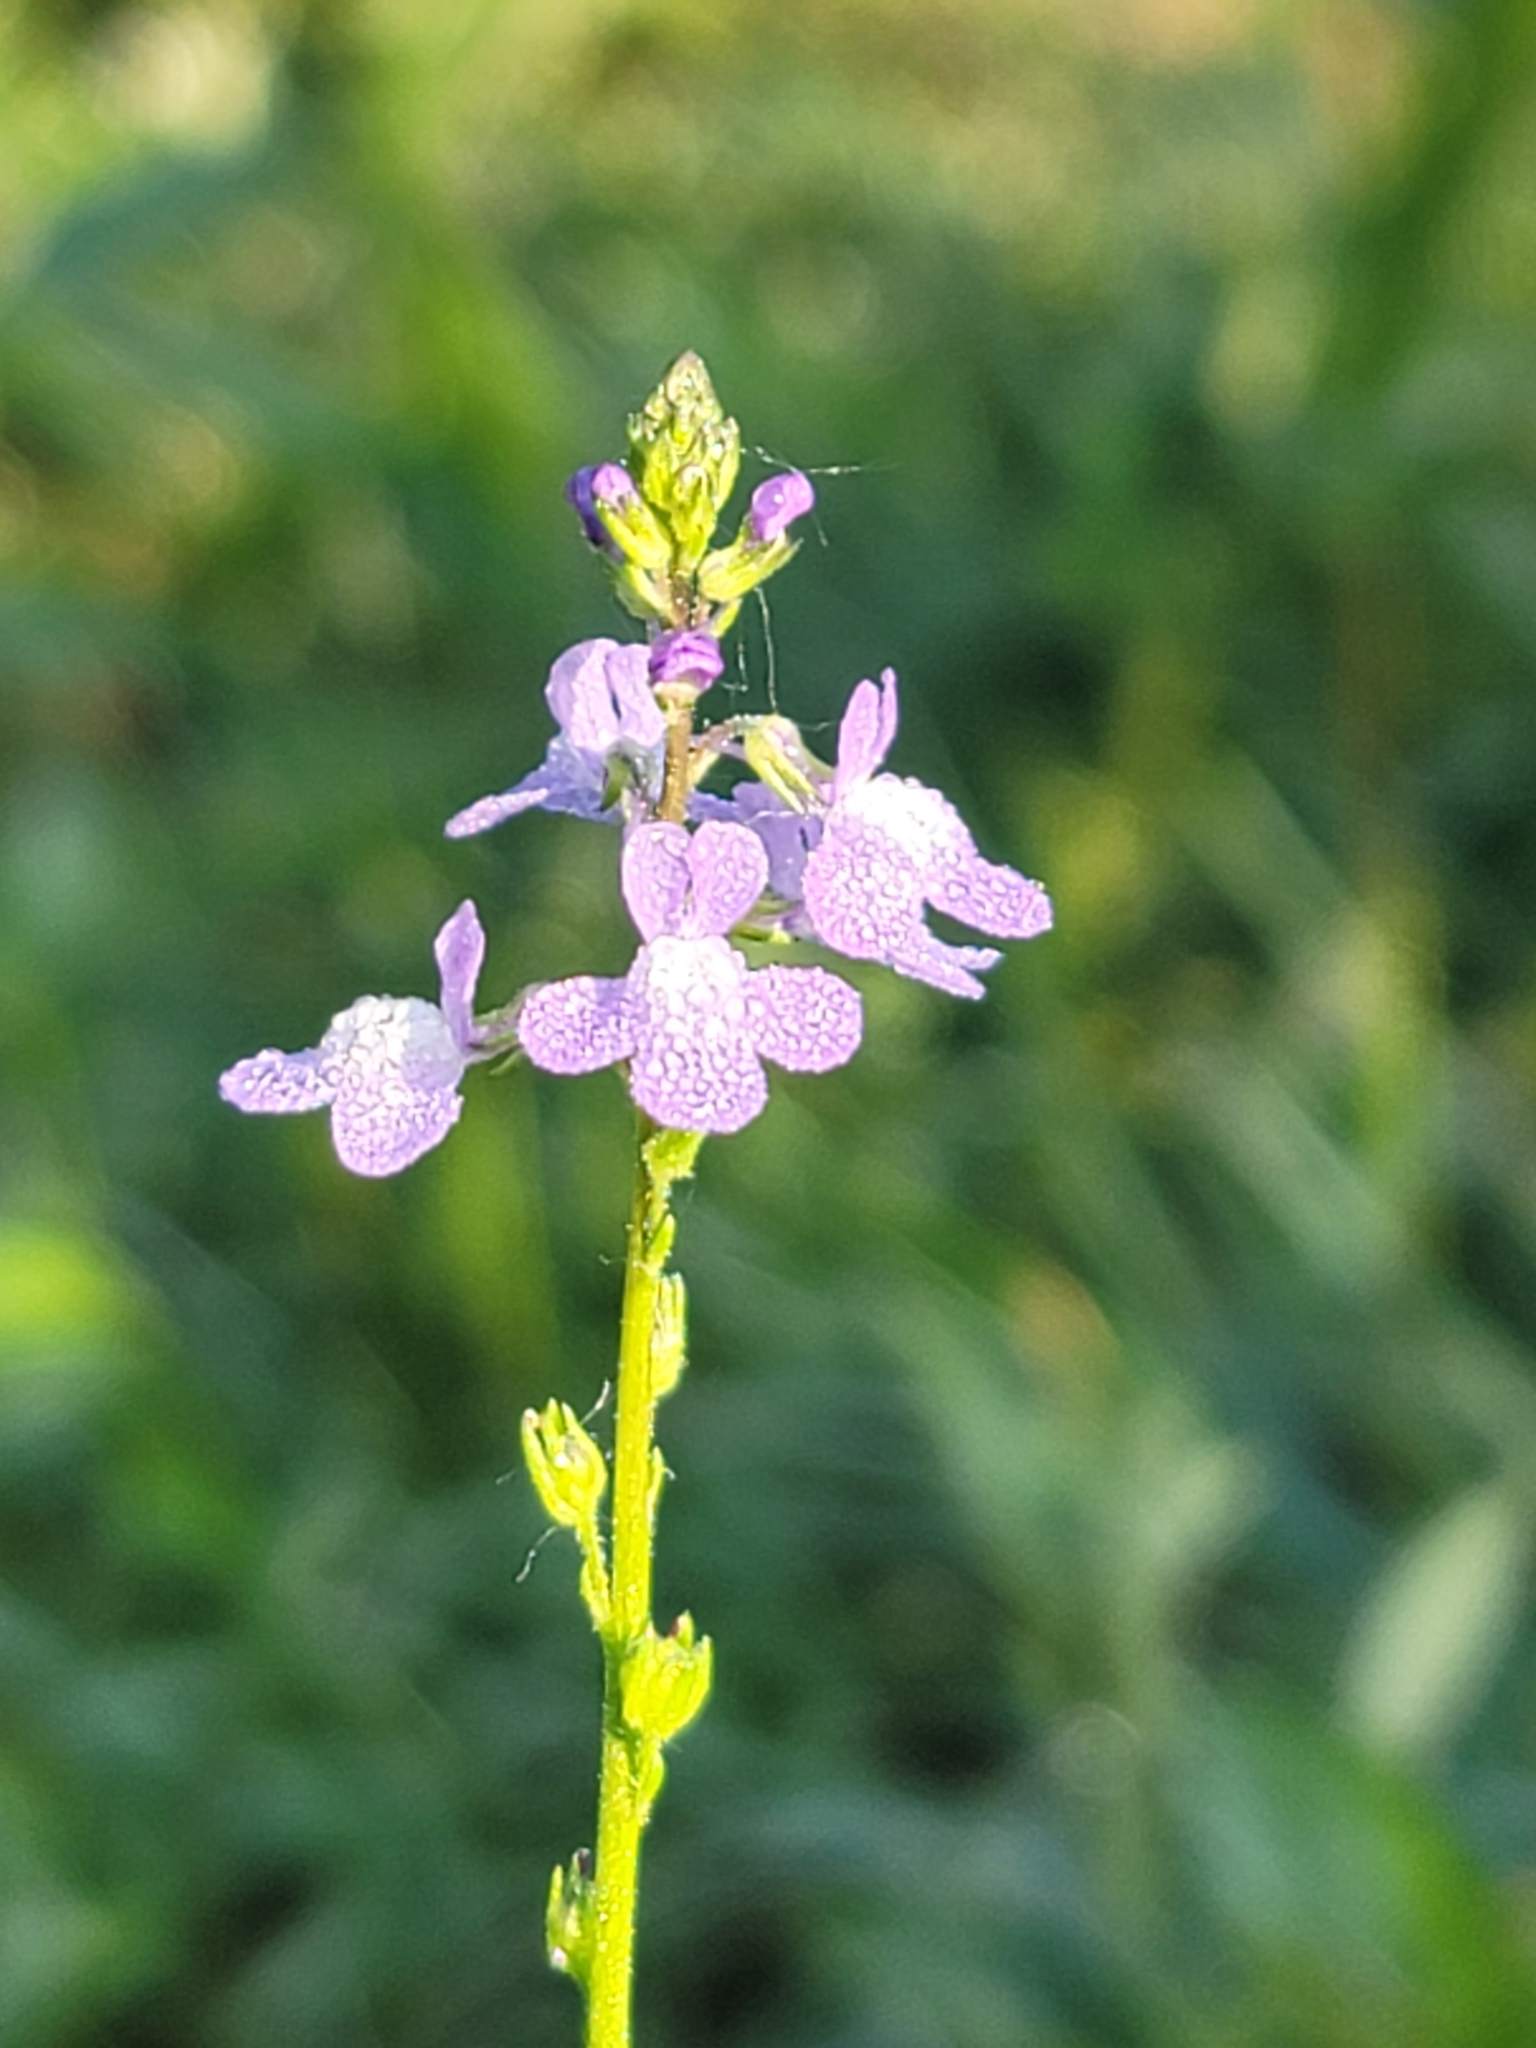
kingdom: Plantae
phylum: Tracheophyta
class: Magnoliopsida
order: Lamiales
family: Plantaginaceae
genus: Nuttallanthus
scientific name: Nuttallanthus canadensis
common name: Blue toadflax
